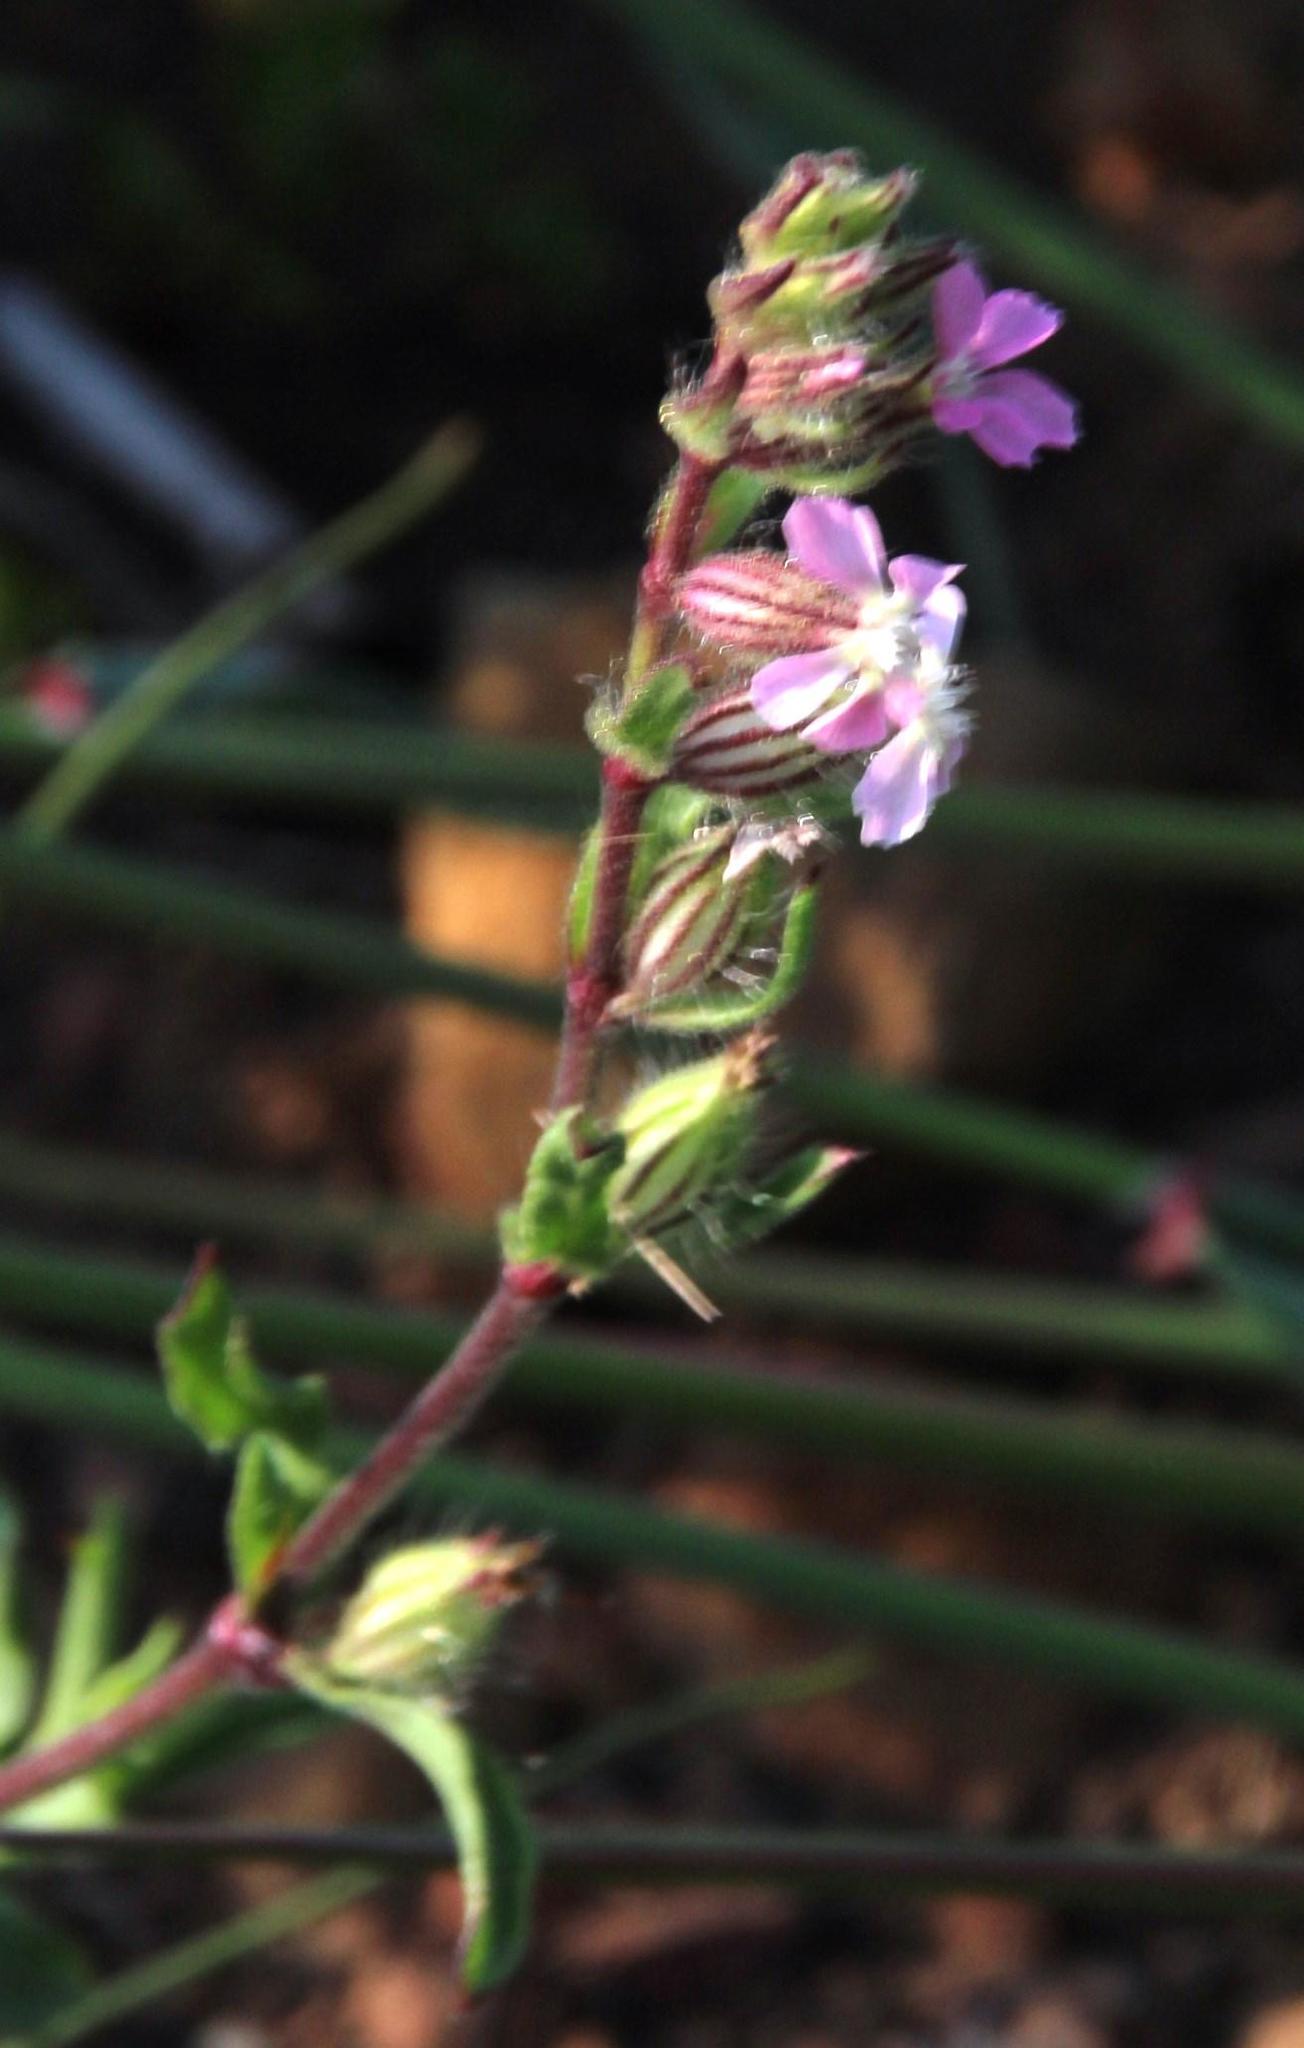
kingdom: Plantae
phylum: Tracheophyta
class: Magnoliopsida
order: Caryophyllales
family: Caryophyllaceae
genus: Silene
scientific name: Silene gallica
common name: Small-flowered catchfly
